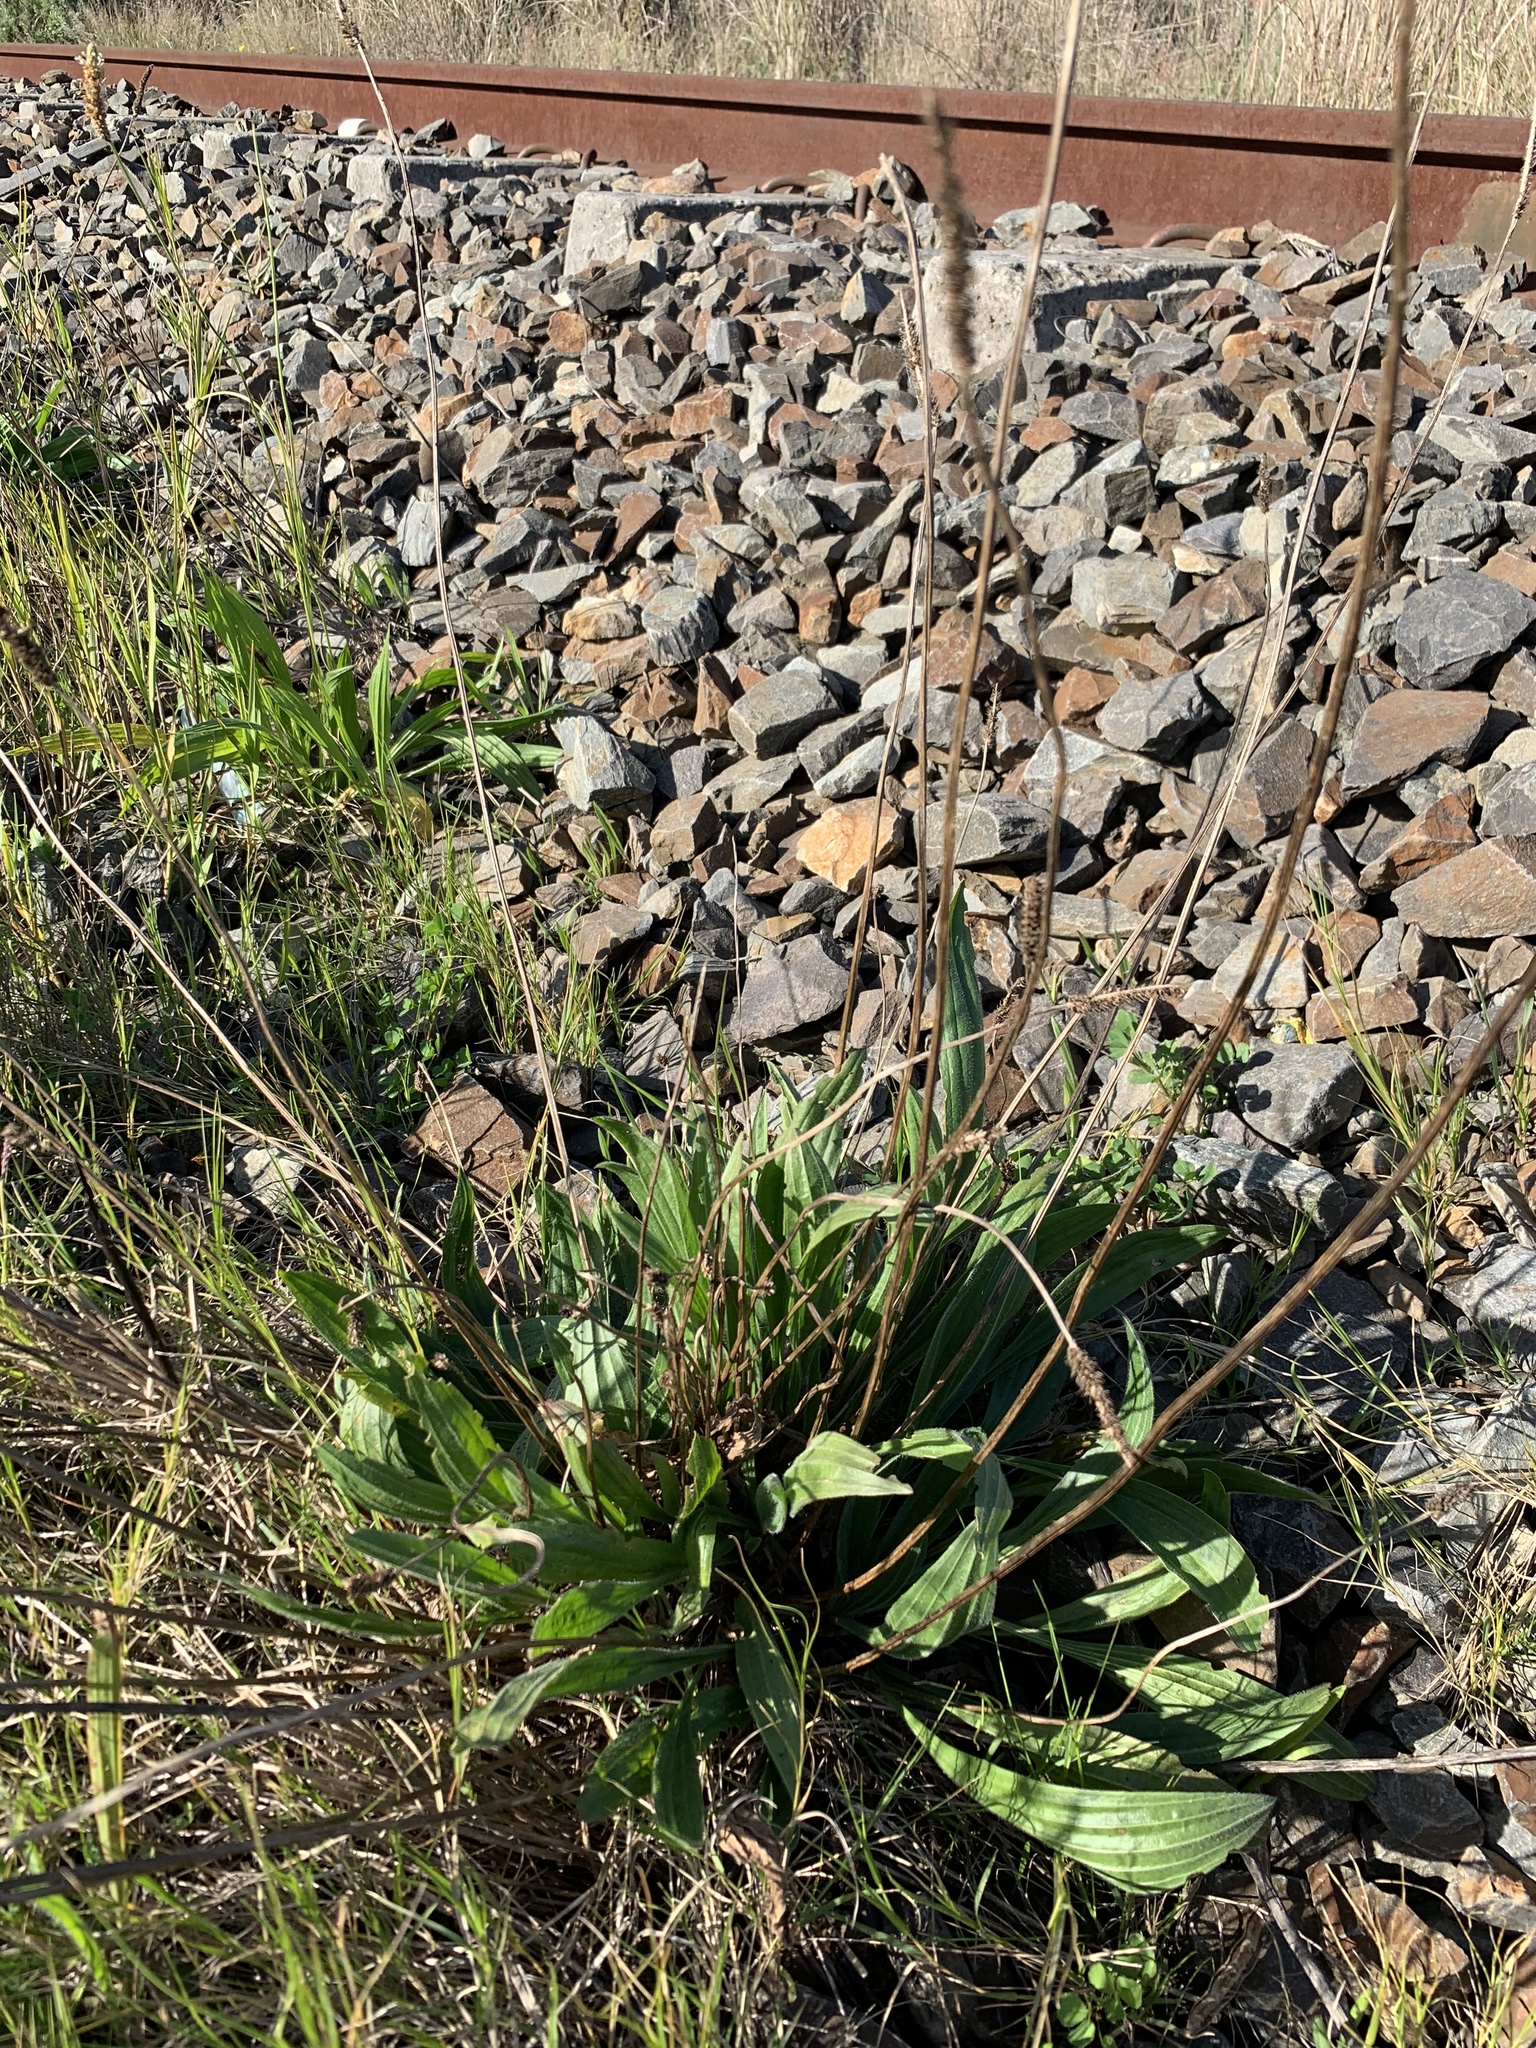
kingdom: Plantae
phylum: Tracheophyta
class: Magnoliopsida
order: Lamiales
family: Plantaginaceae
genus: Plantago
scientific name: Plantago lanceolata
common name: Ribwort plantain
